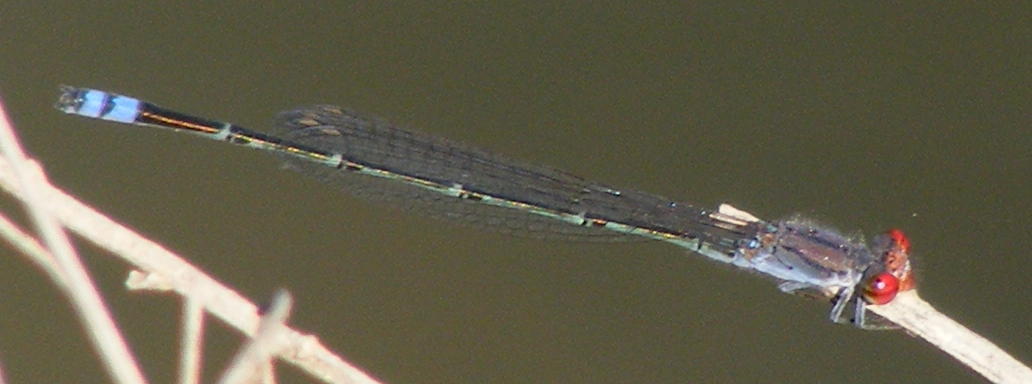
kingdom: Animalia
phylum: Arthropoda
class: Insecta
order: Odonata
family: Coenagrionidae
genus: Pseudagrion
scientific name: Pseudagrion sublacteum
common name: Cherry-eye sprite
